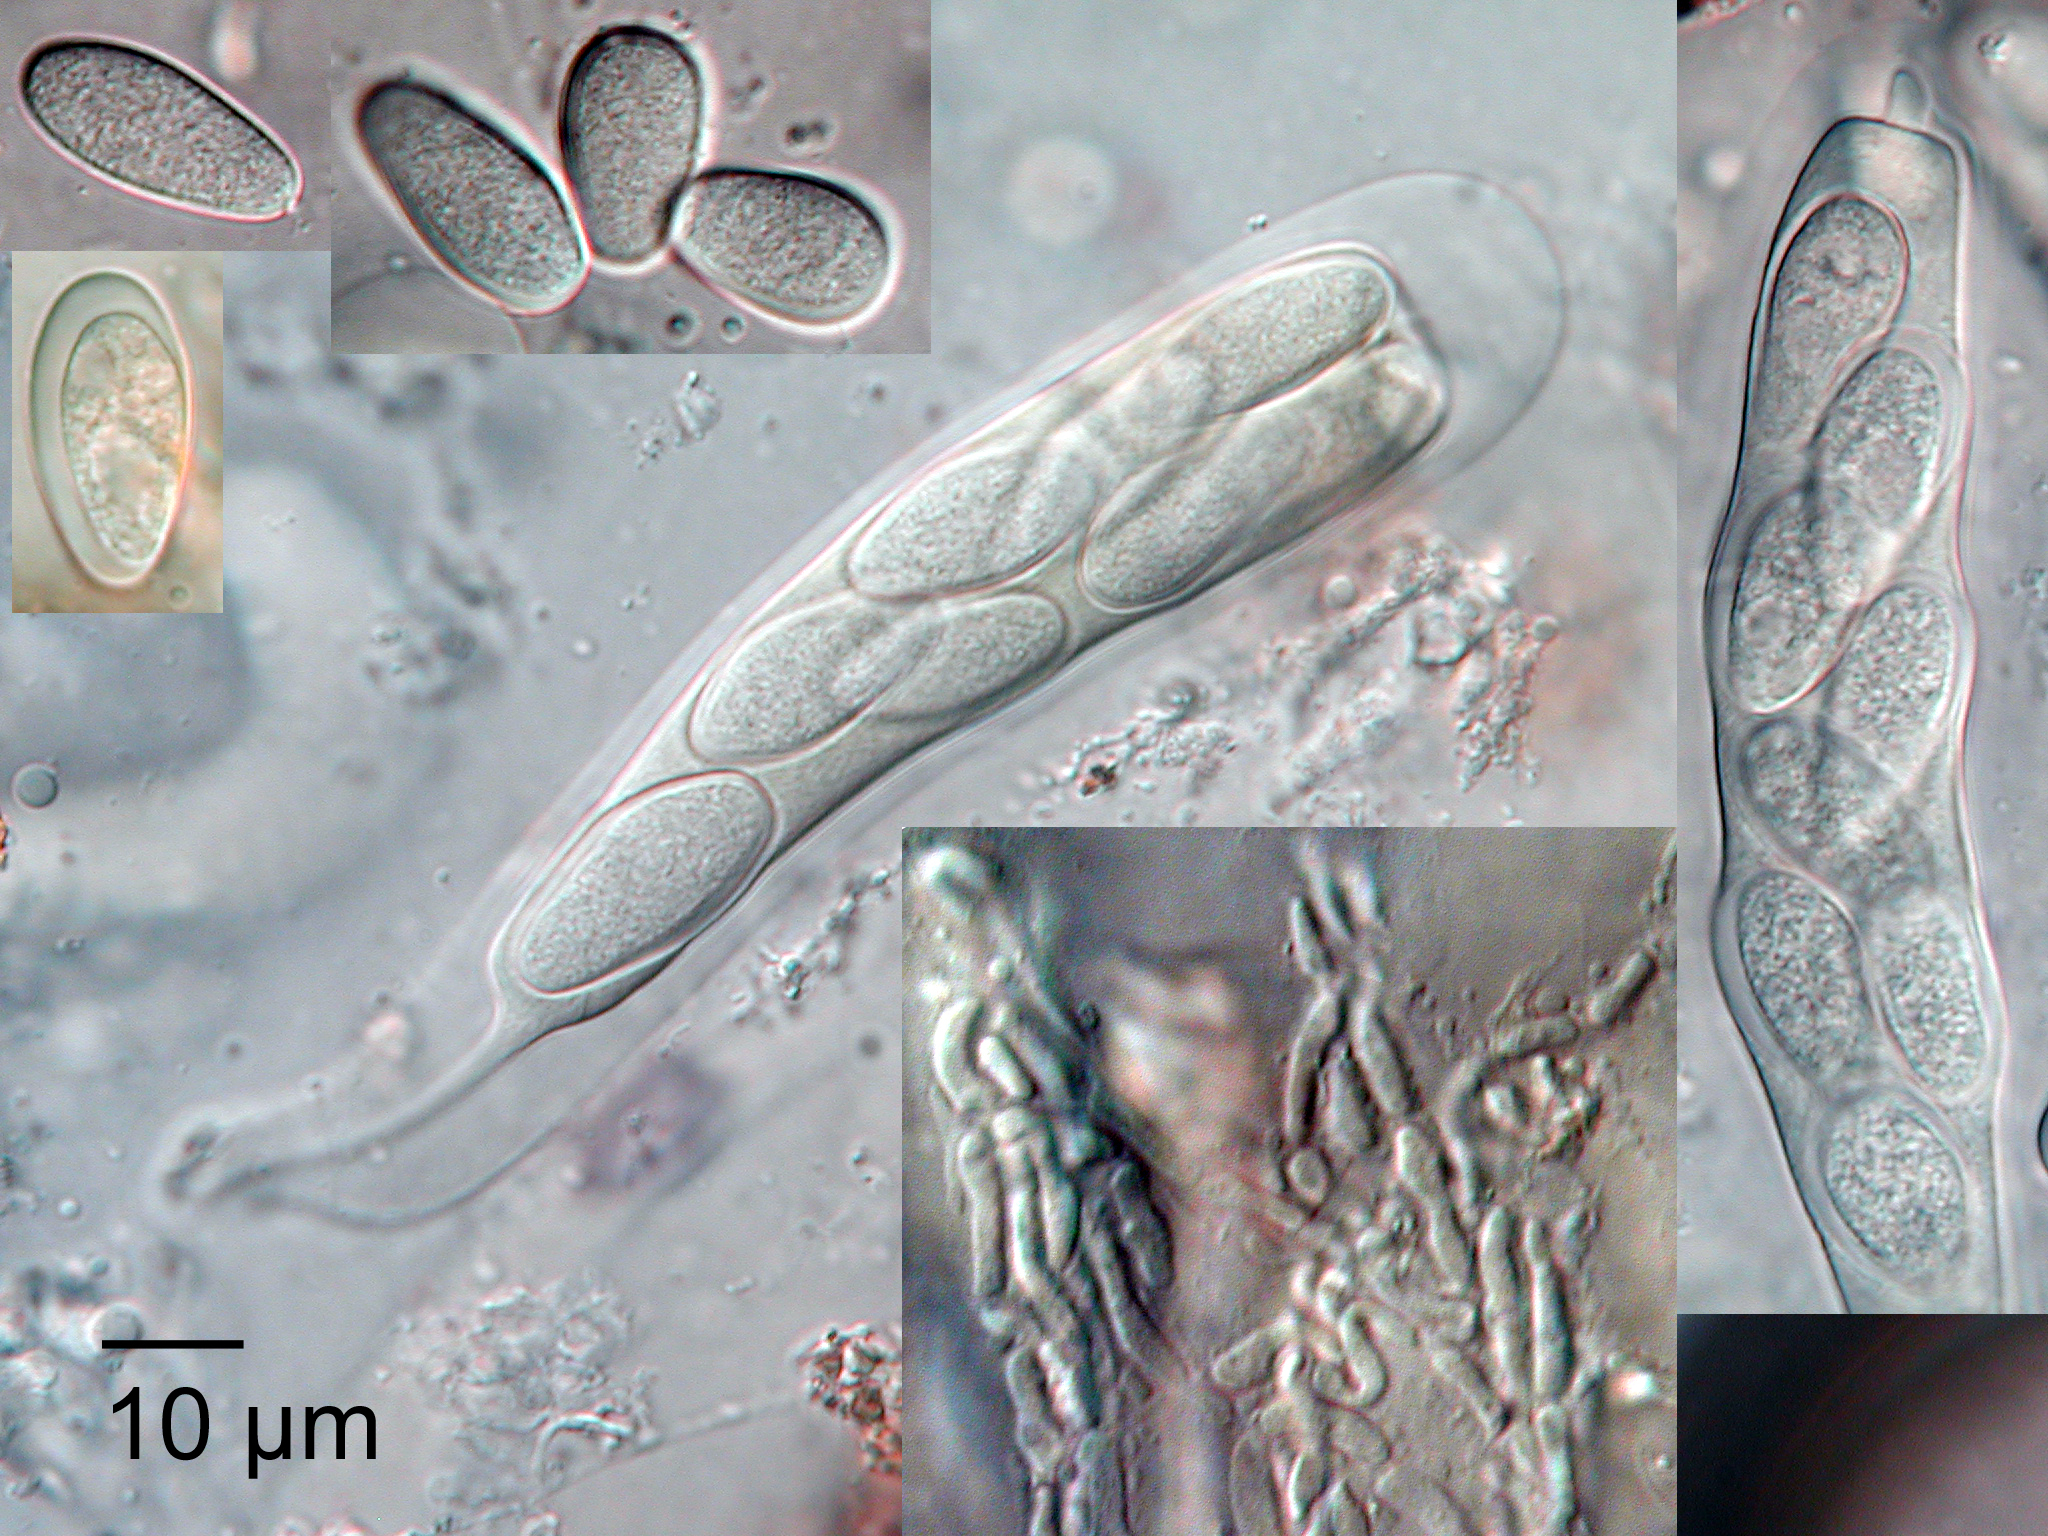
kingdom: Fungi
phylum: Ascomycota
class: Dothideomycetes
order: Botryosphaeriales
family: Botryosphaeriaceae
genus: Neofusicoccum
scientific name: Neofusicoccum australe
